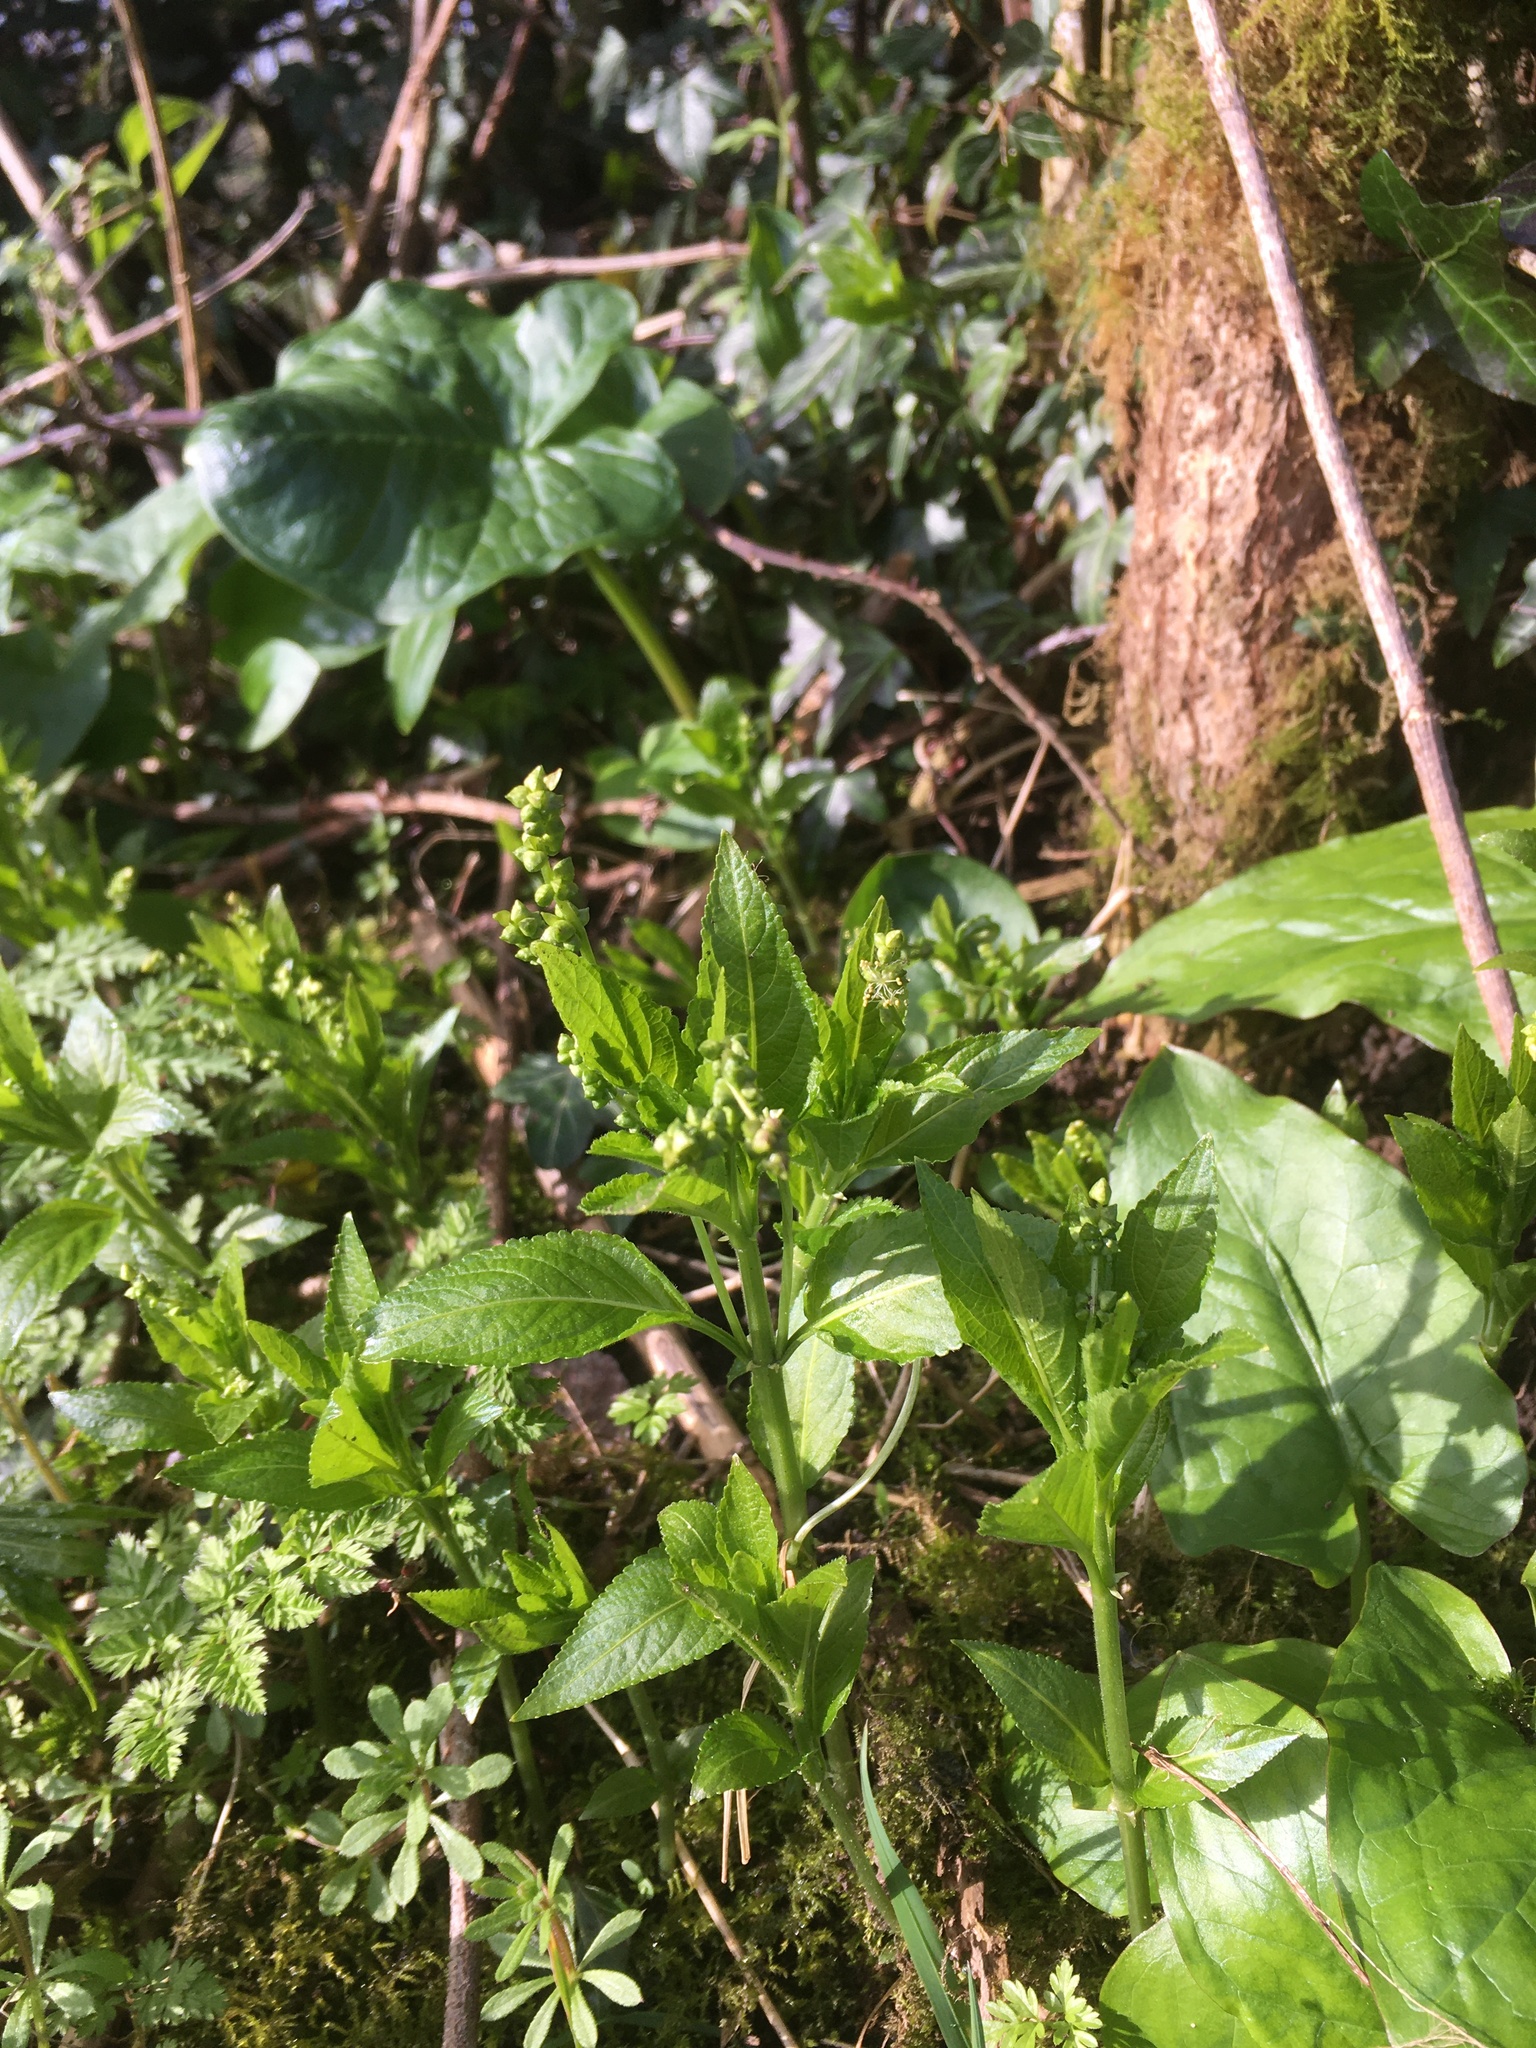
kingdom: Plantae
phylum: Tracheophyta
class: Magnoliopsida
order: Malpighiales
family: Euphorbiaceae
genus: Mercurialis
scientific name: Mercurialis perennis
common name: Dog mercury
